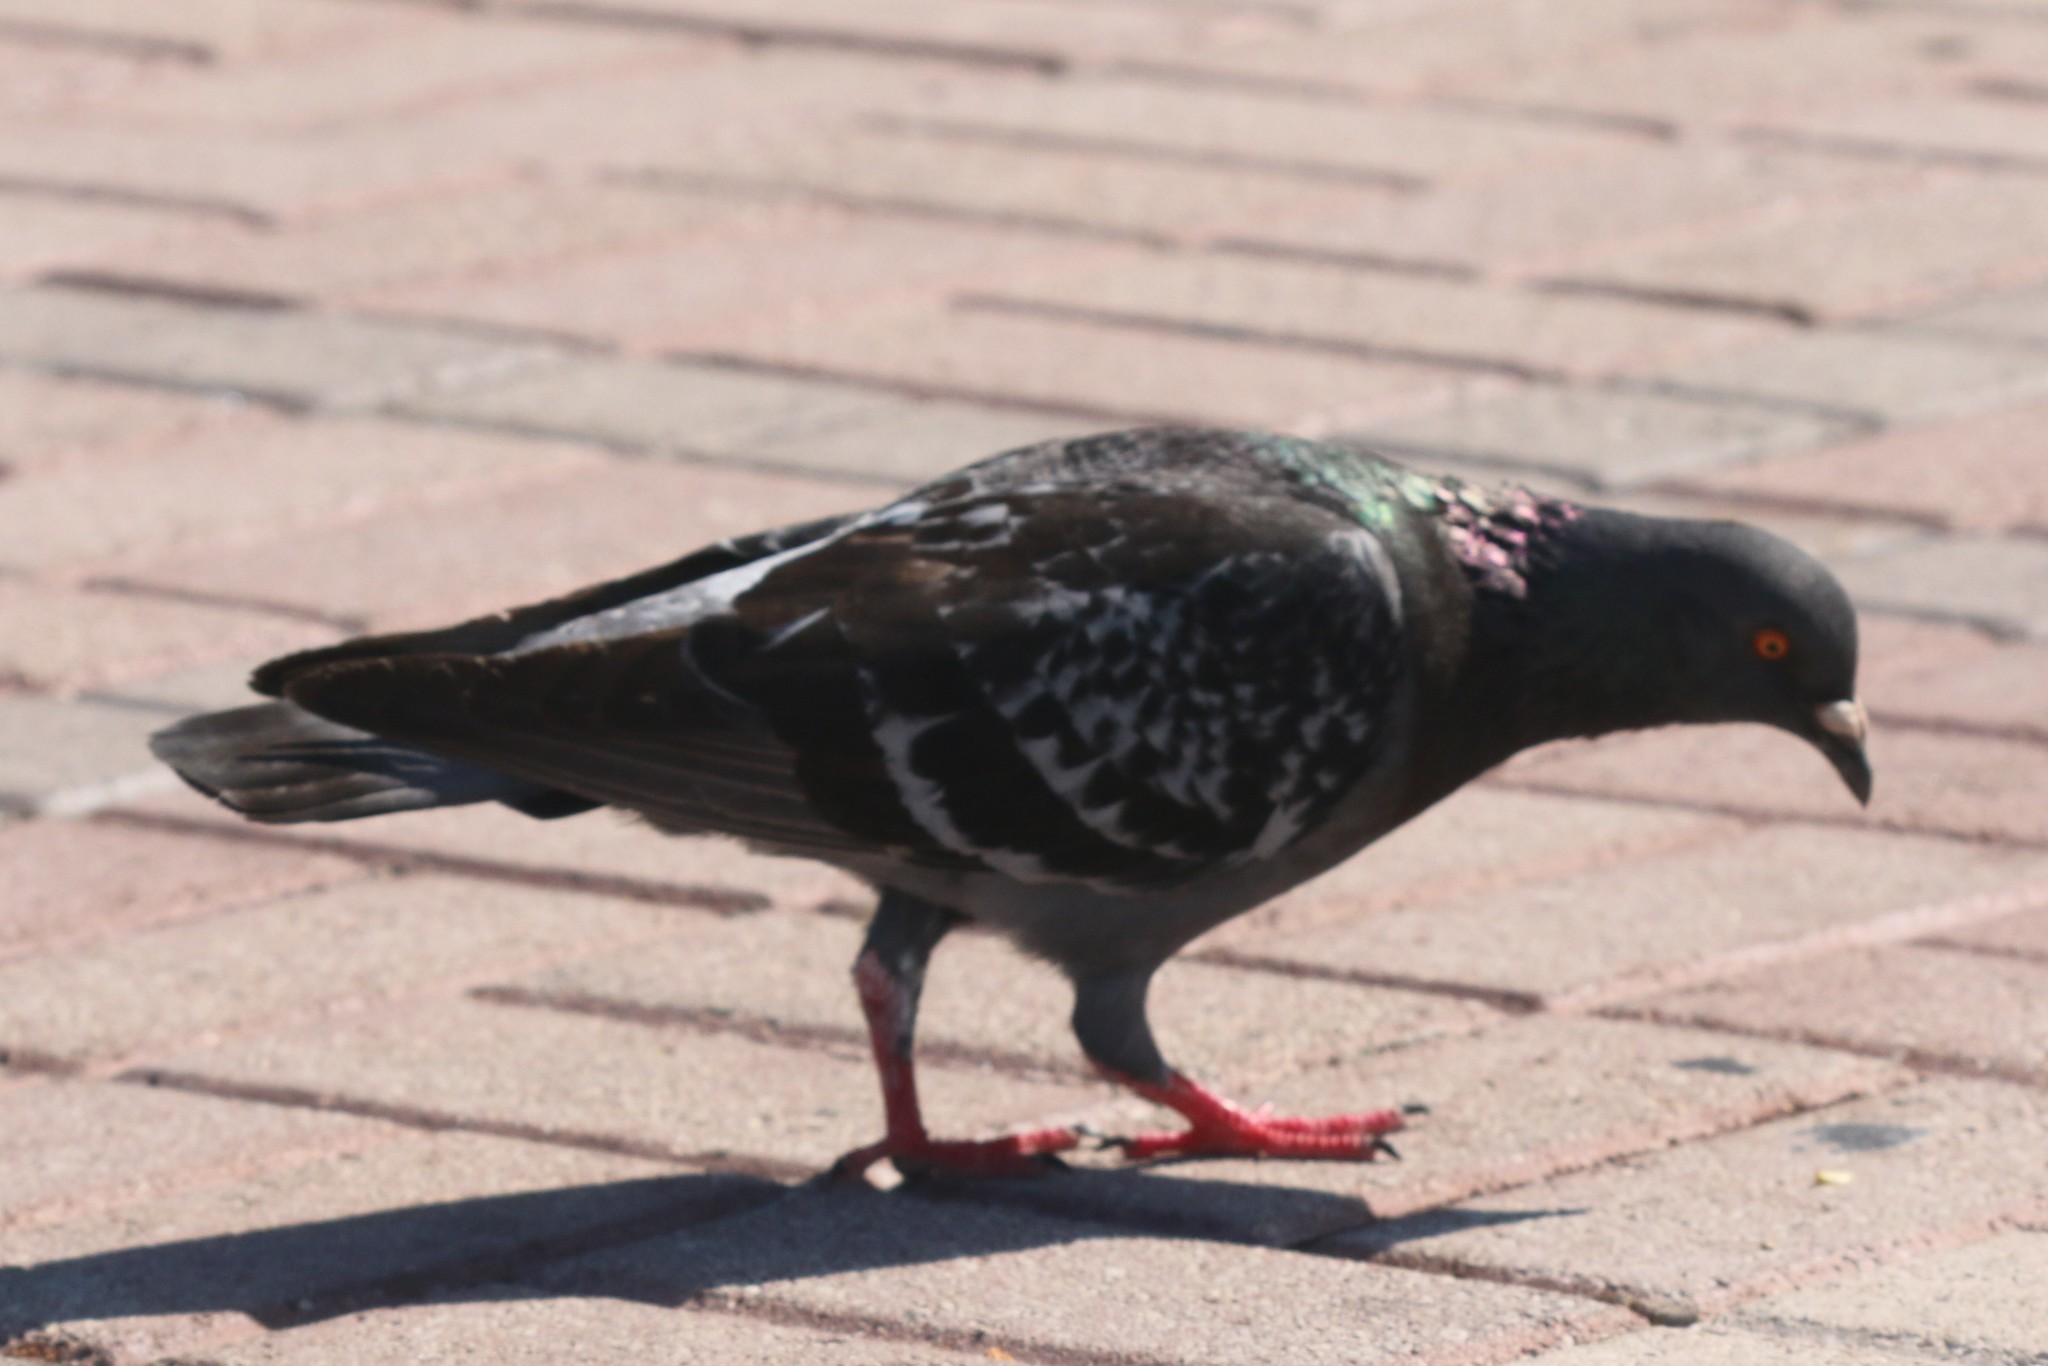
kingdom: Animalia
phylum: Chordata
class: Aves
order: Columbiformes
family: Columbidae
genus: Columba
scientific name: Columba livia
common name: Rock pigeon
